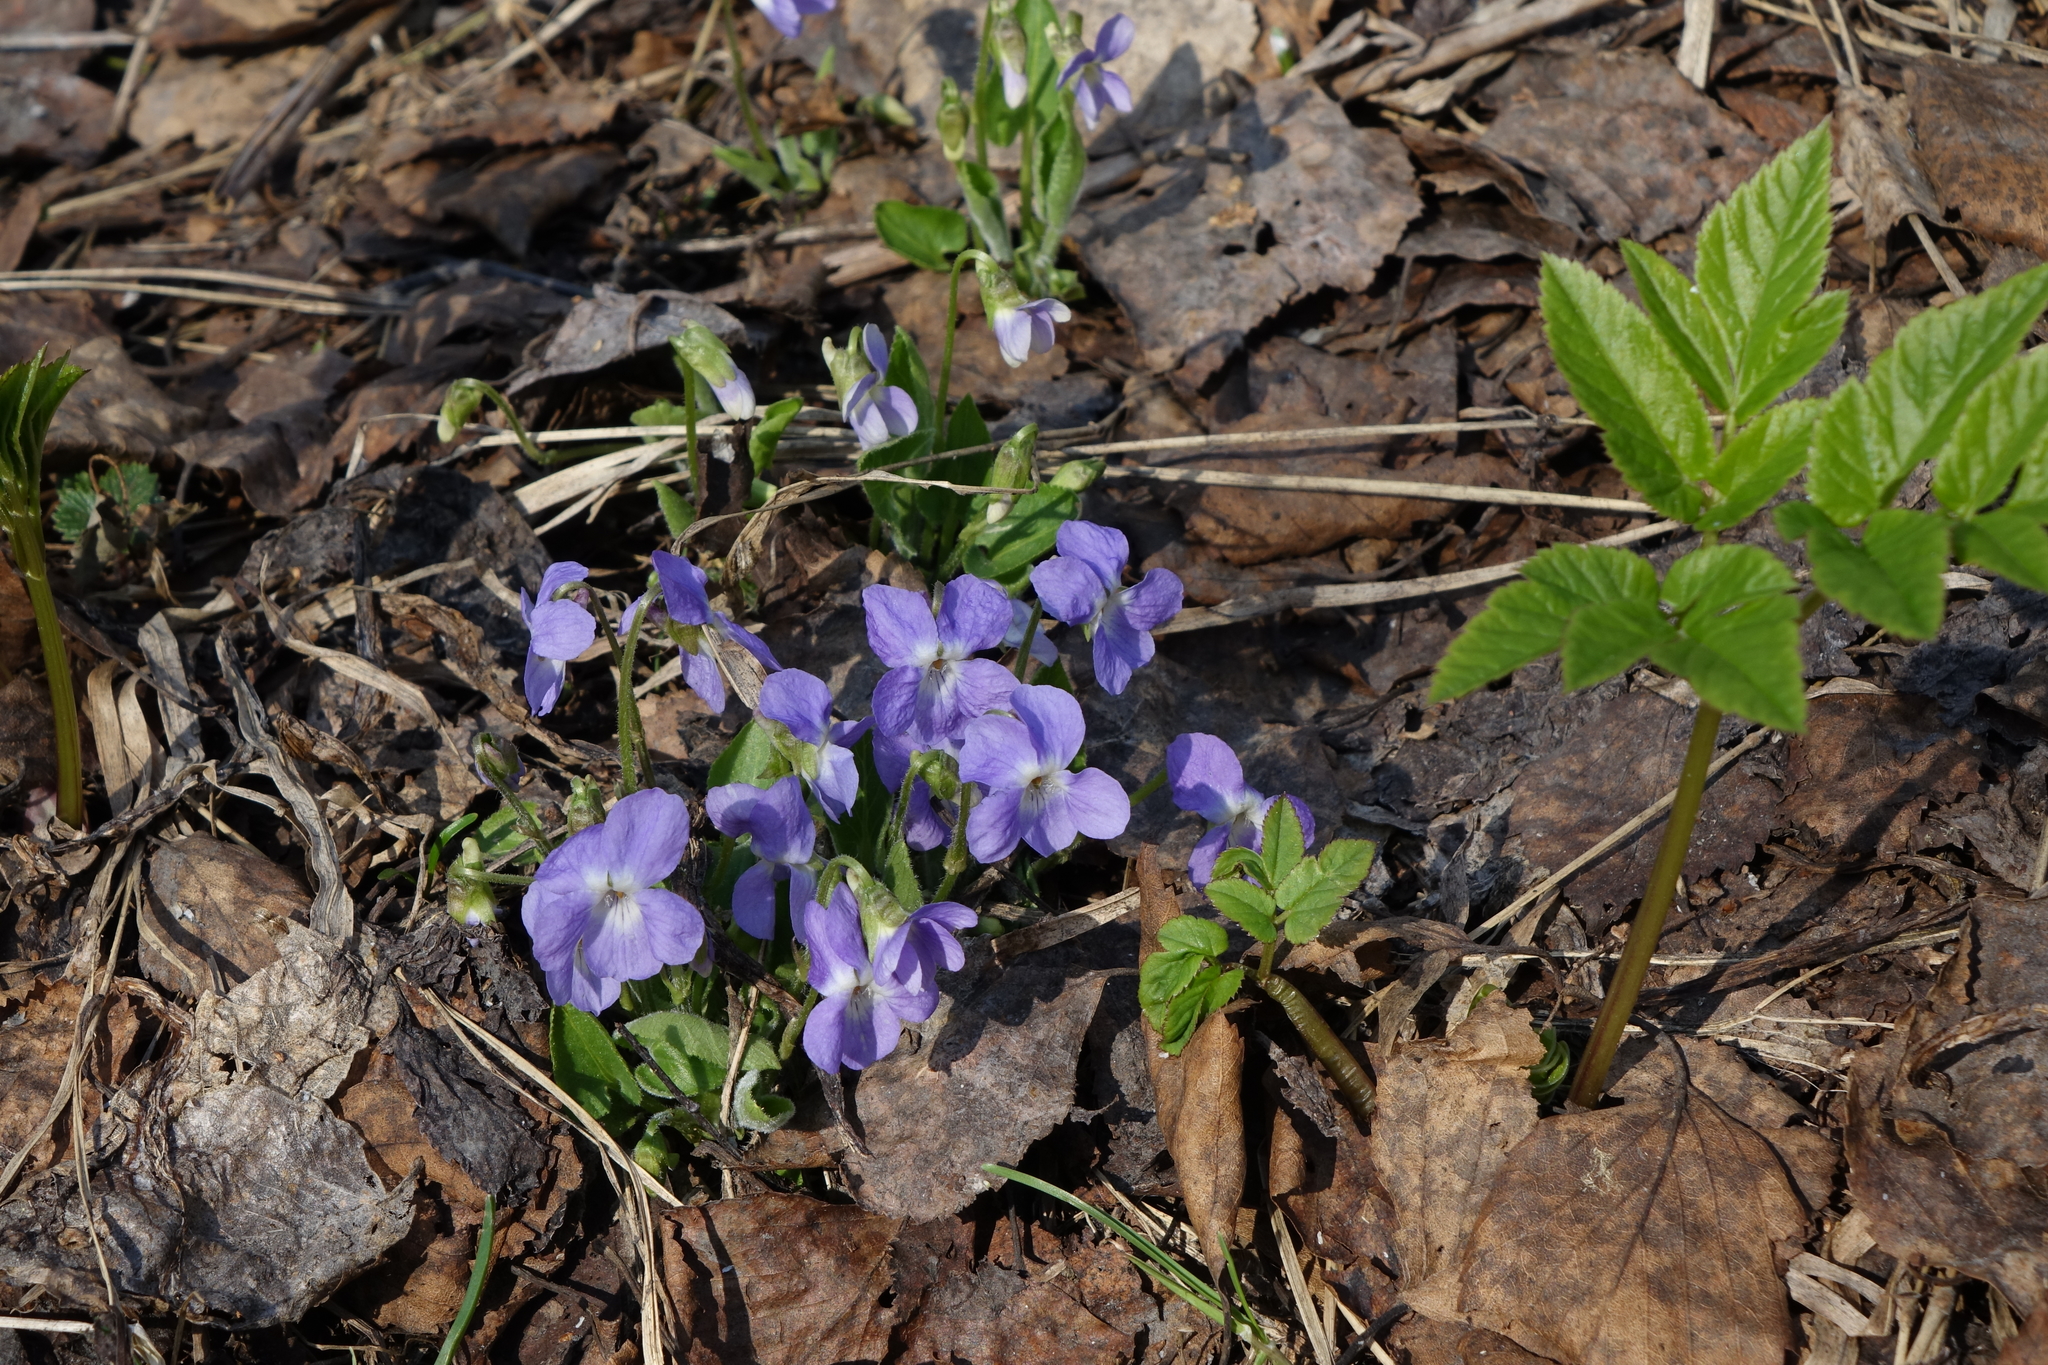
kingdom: Plantae
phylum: Tracheophyta
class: Magnoliopsida
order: Malpighiales
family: Violaceae
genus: Viola
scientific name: Viola hirta
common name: Hairy violet
